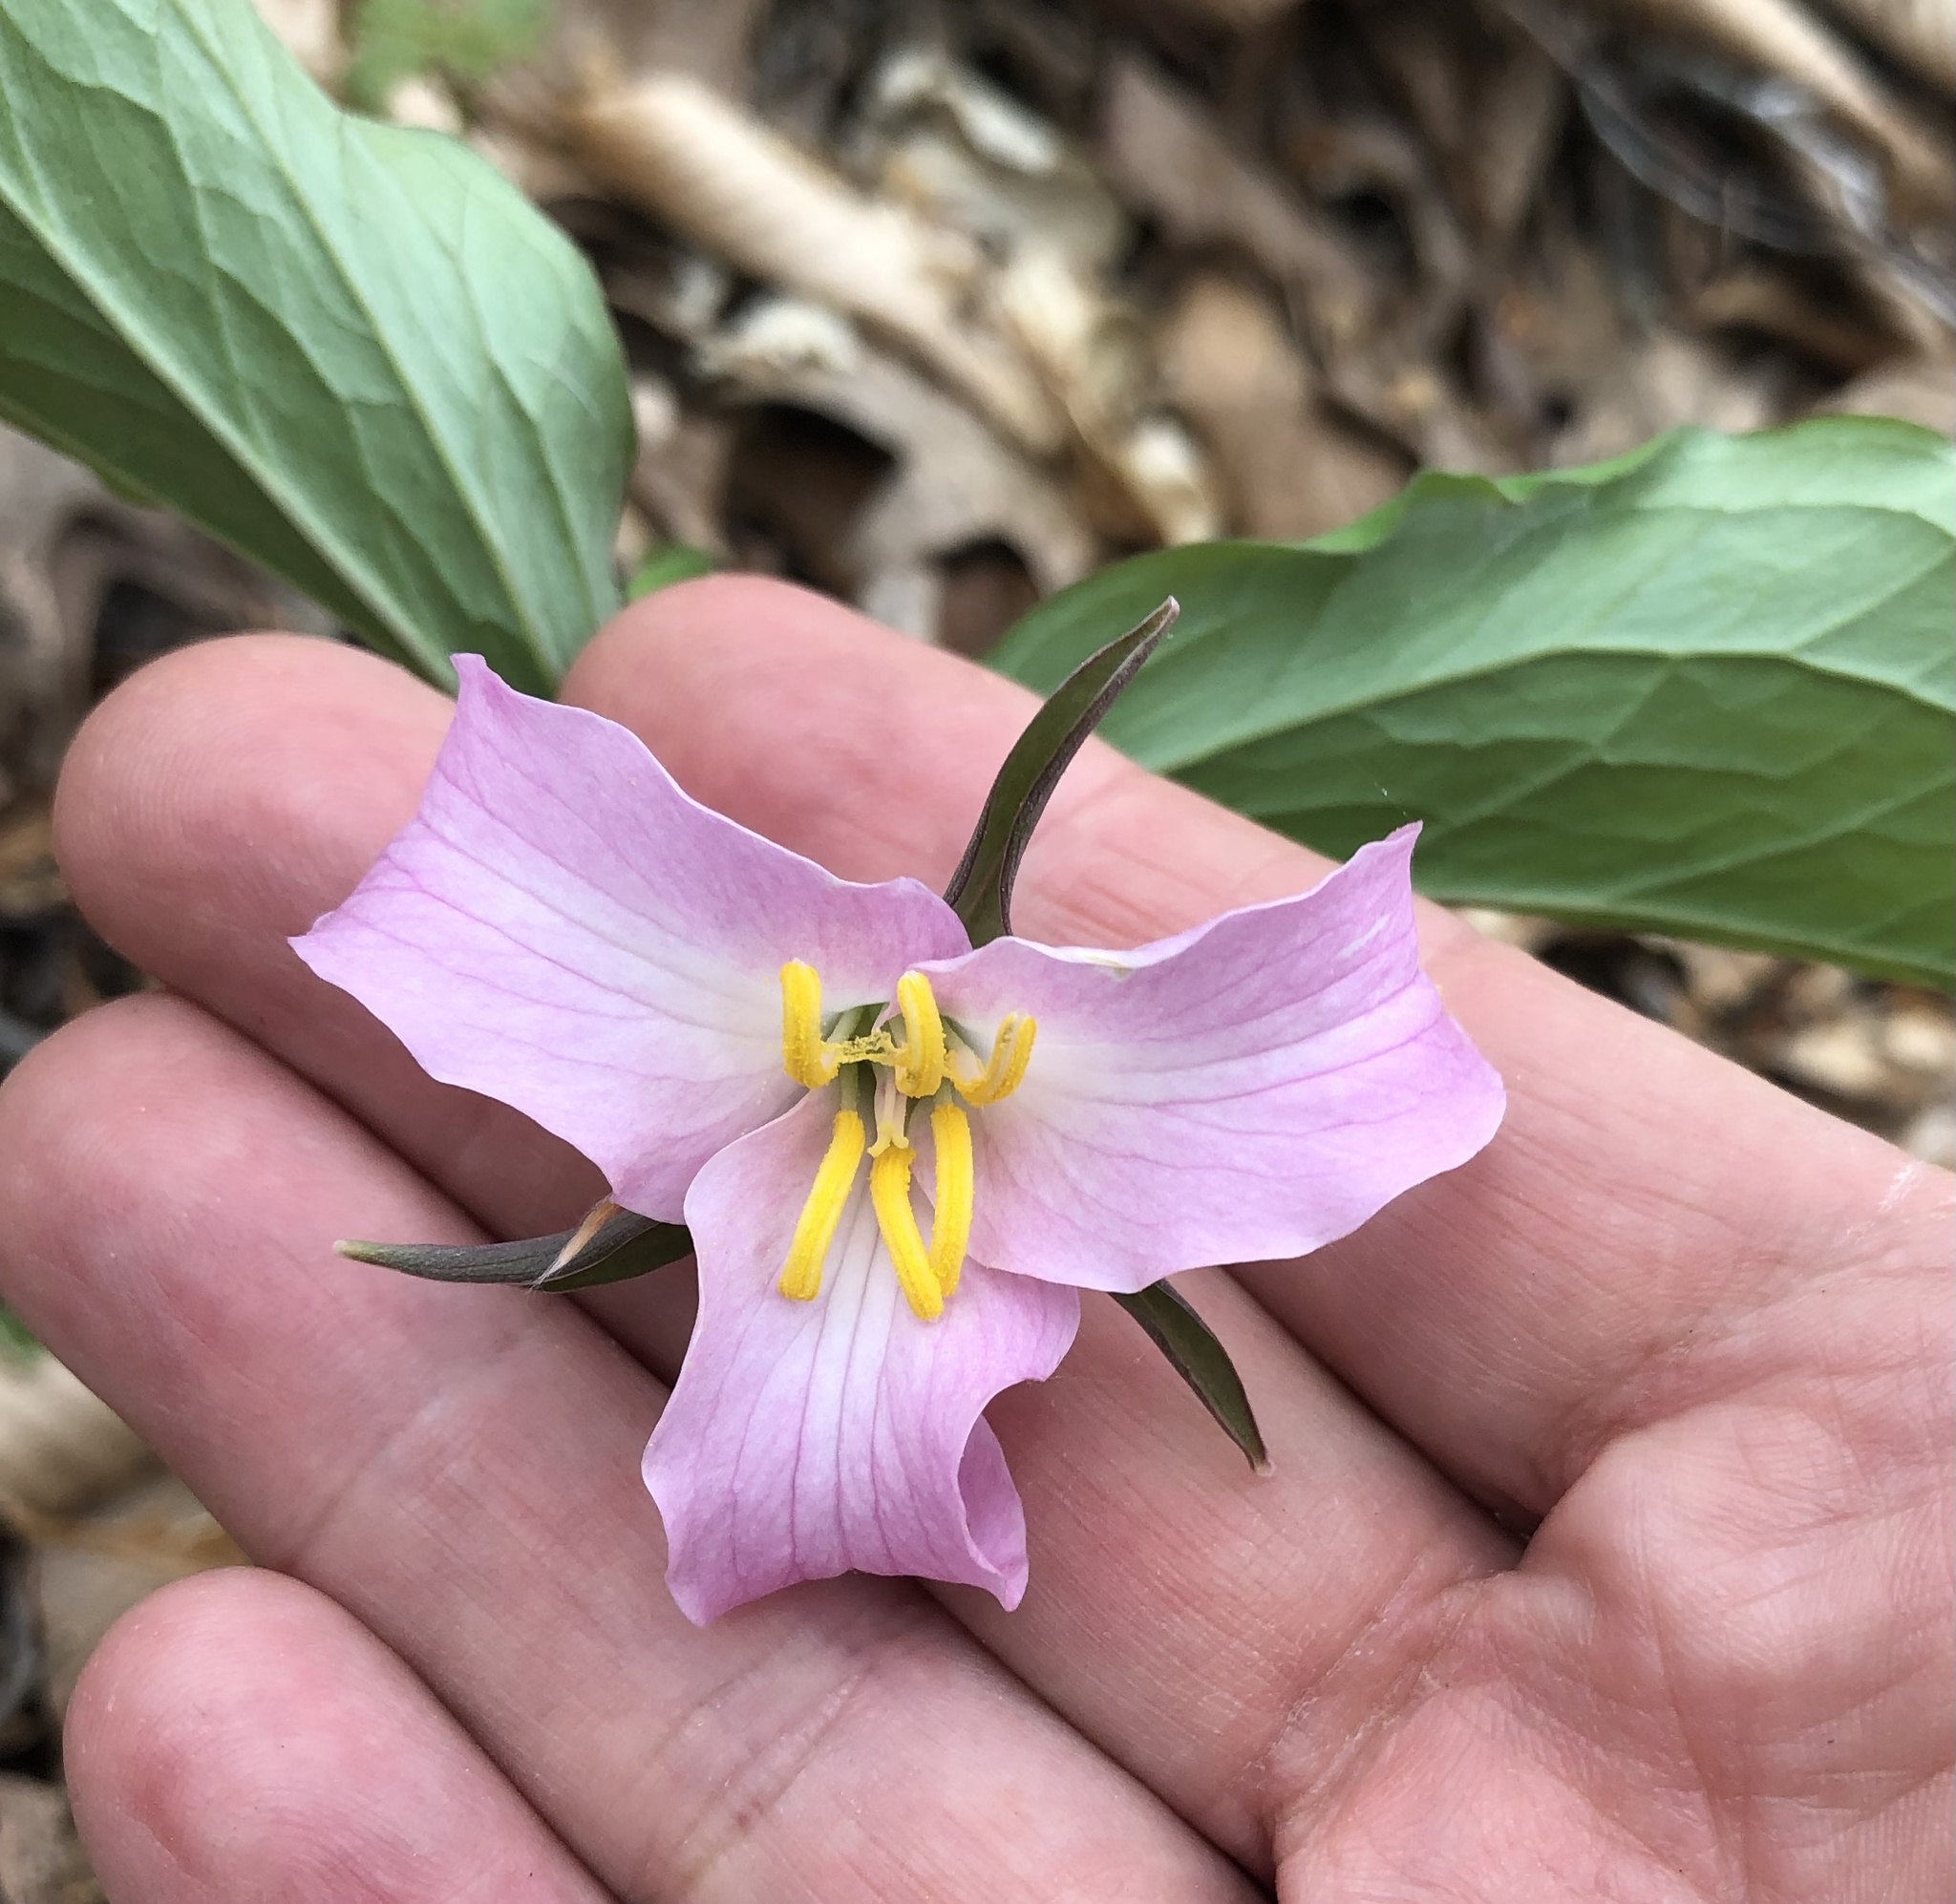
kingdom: Plantae
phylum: Tracheophyta
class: Liliopsida
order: Liliales
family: Melanthiaceae
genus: Trillium
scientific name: Trillium catesbaei
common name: Bashful trillium
